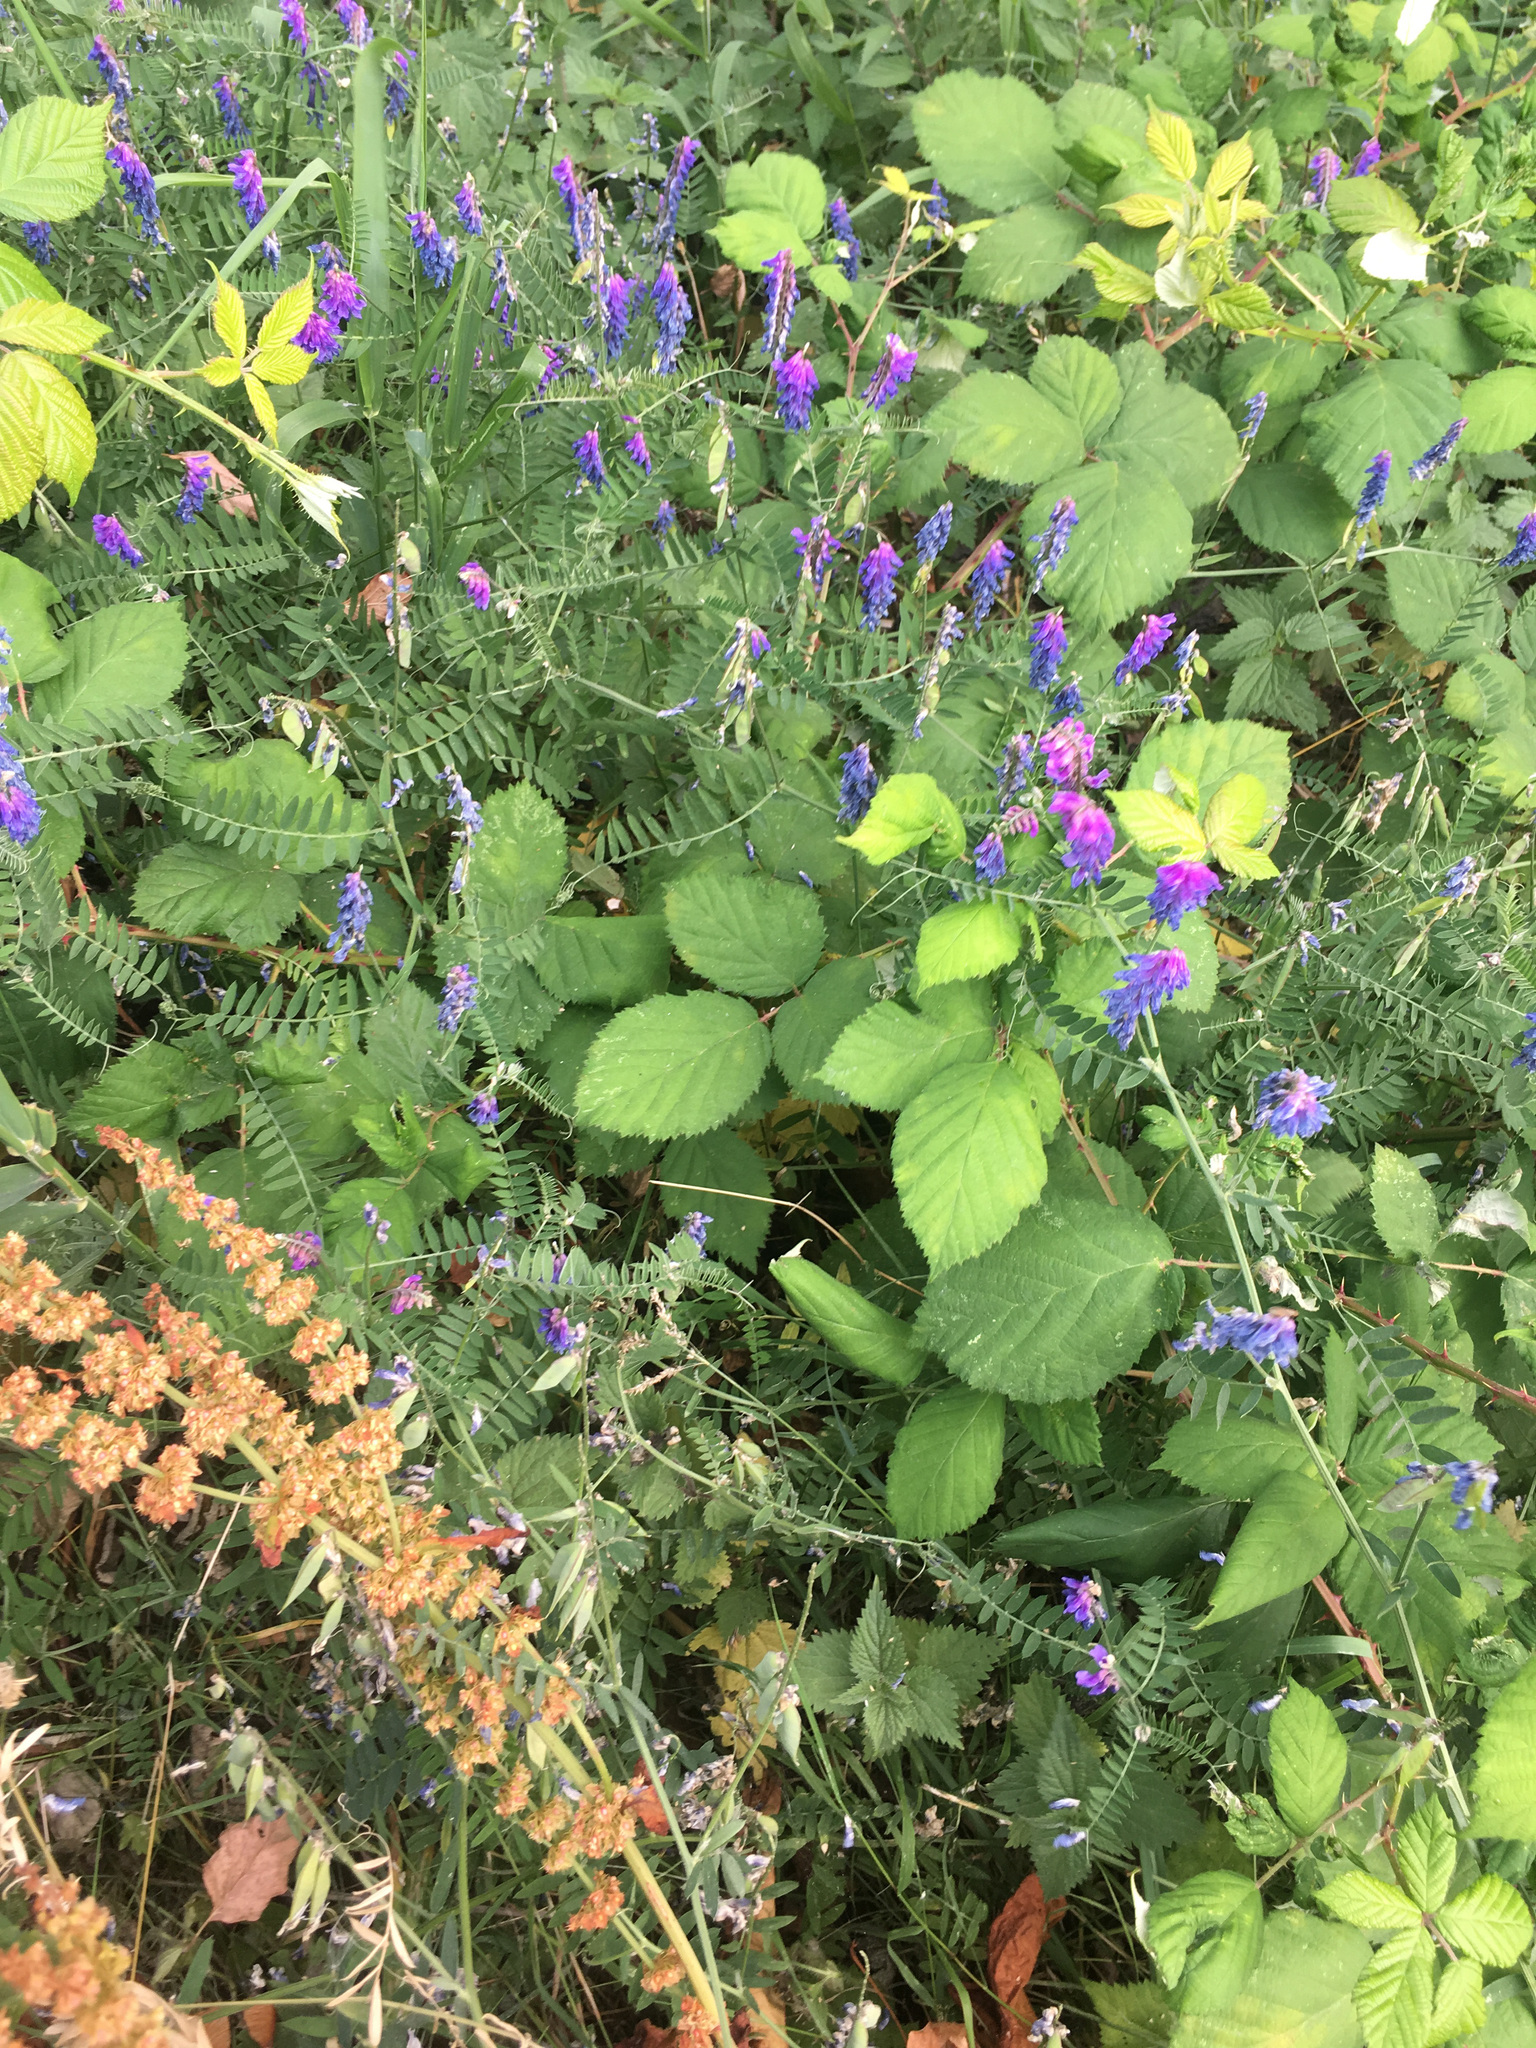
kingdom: Plantae
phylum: Tracheophyta
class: Magnoliopsida
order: Fabales
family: Fabaceae
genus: Vicia
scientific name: Vicia cracca
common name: Bird vetch
